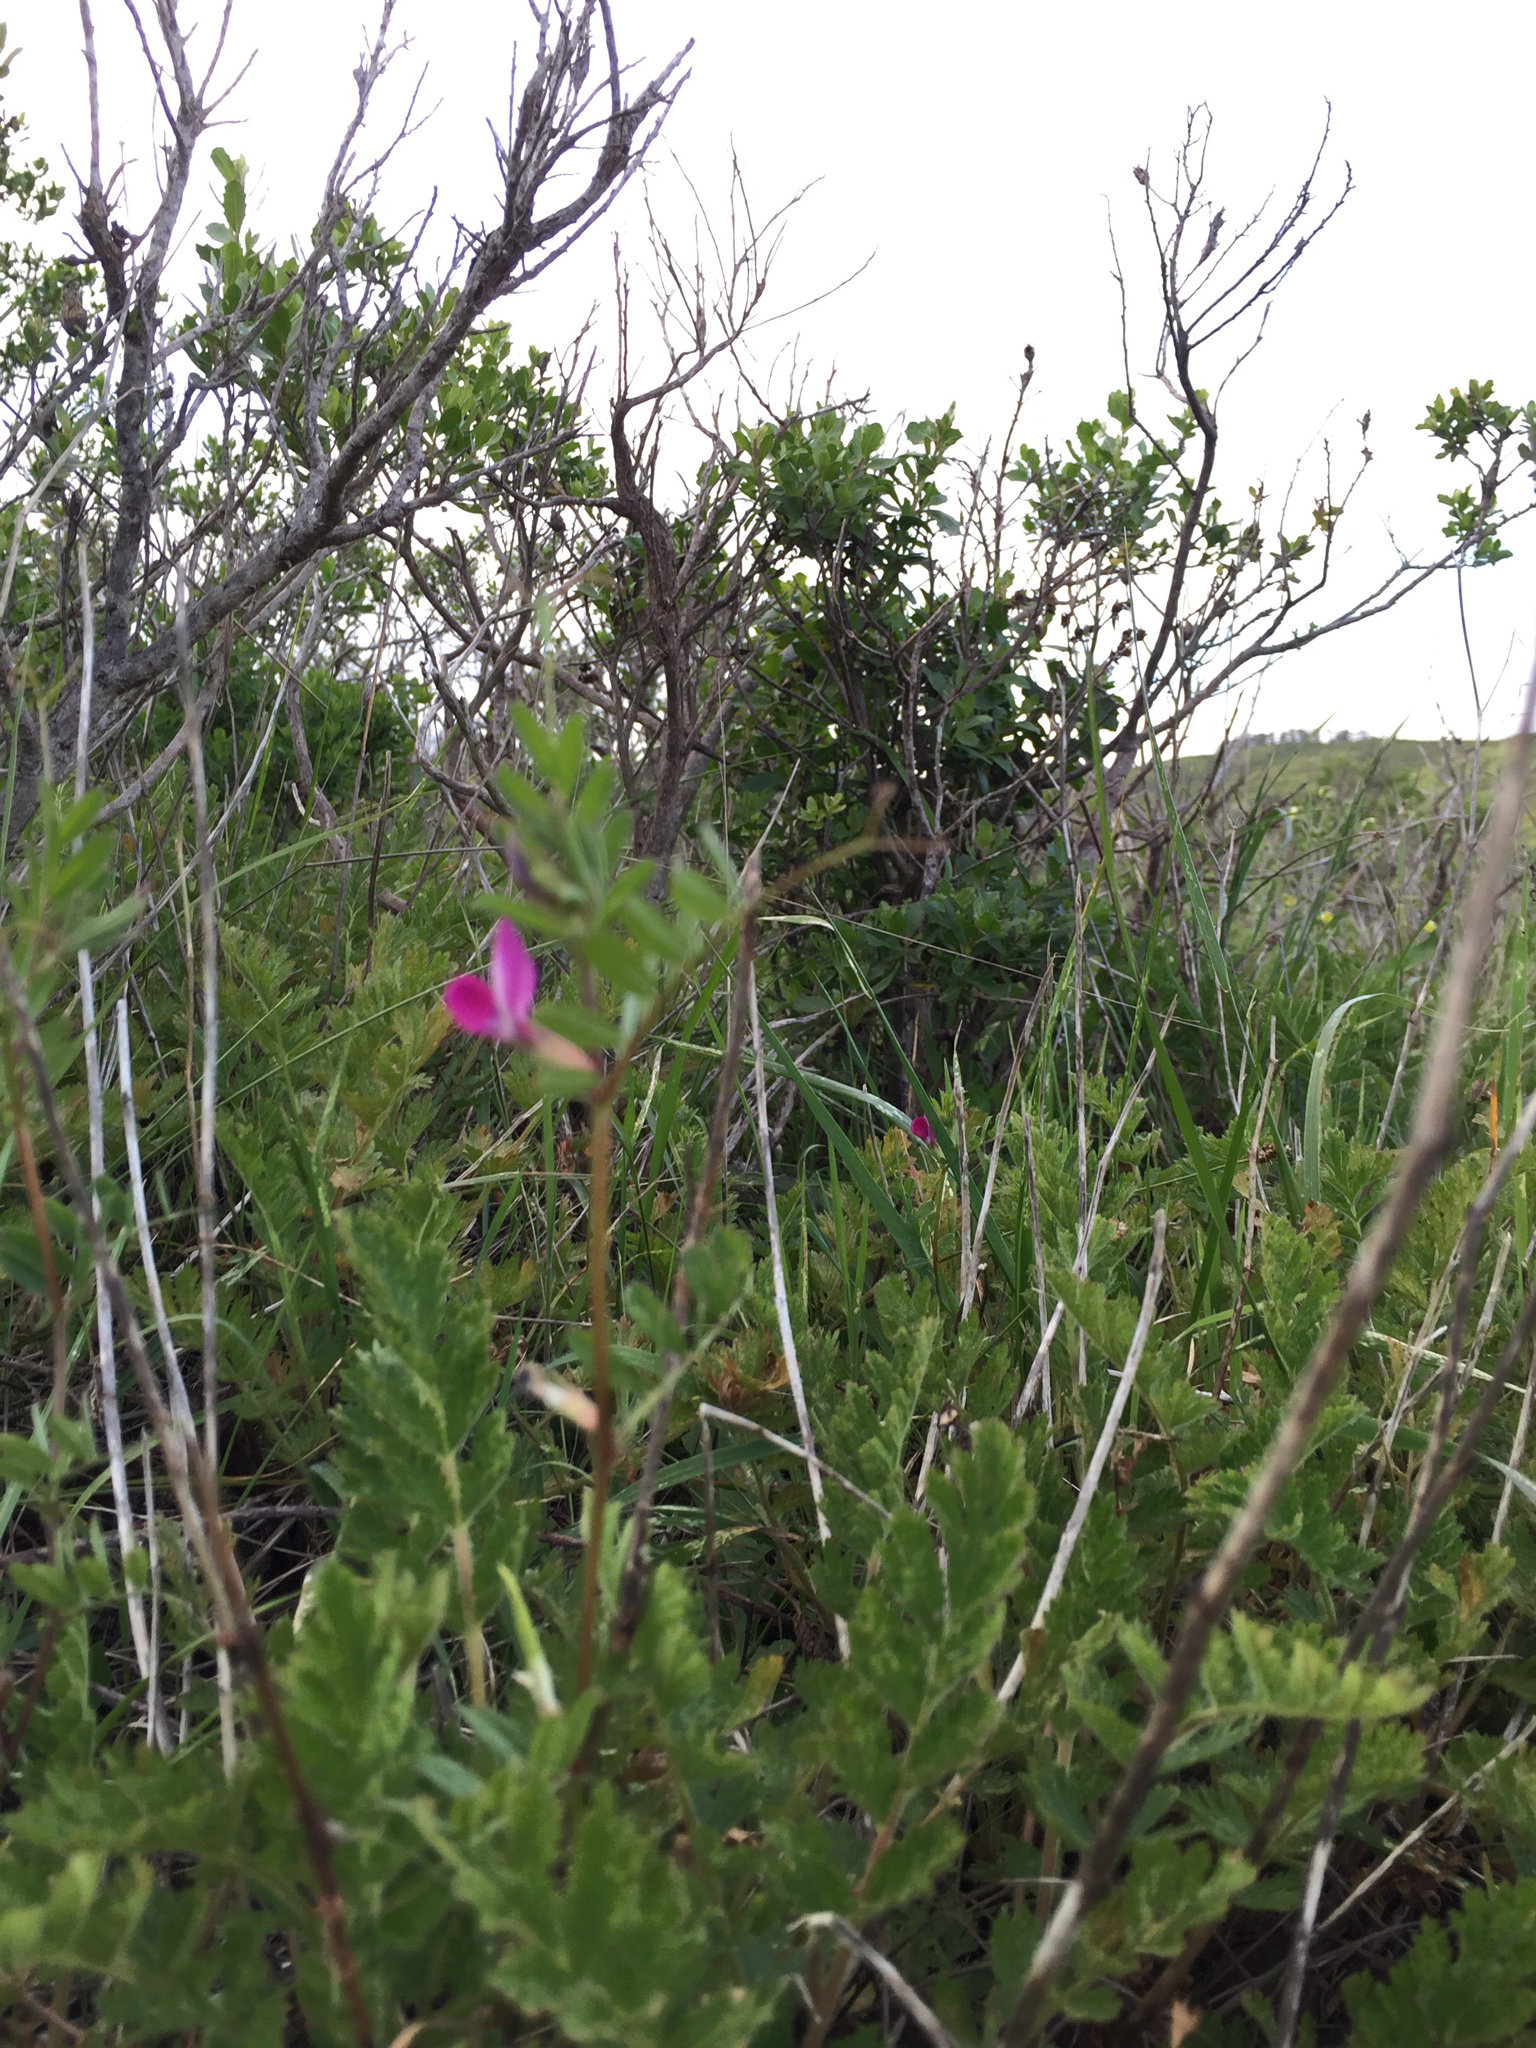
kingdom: Plantae
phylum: Tracheophyta
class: Magnoliopsida
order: Fabales
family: Fabaceae
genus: Vicia
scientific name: Vicia sativa
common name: Garden vetch
